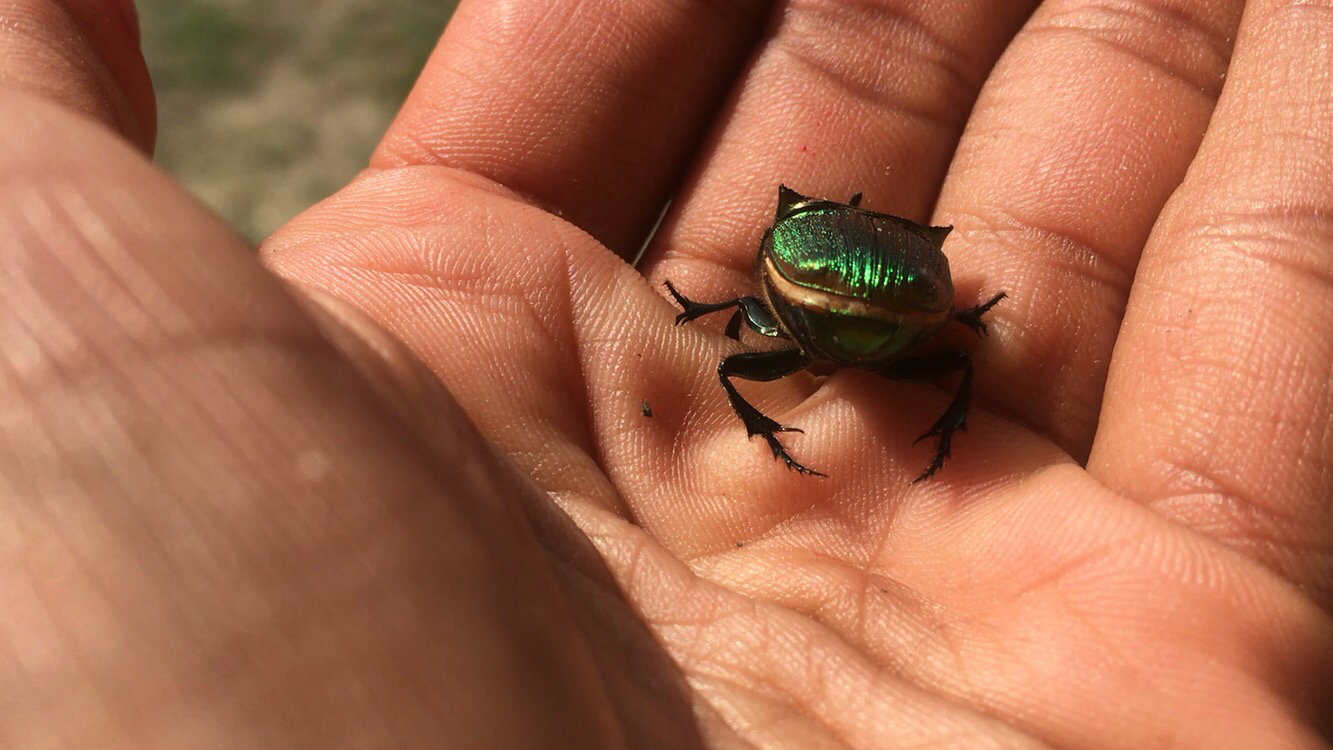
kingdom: Animalia
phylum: Arthropoda
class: Insecta
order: Coleoptera
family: Scarabaeidae
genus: Phanaeus
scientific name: Phanaeus vindex
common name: Rainbow scarab
